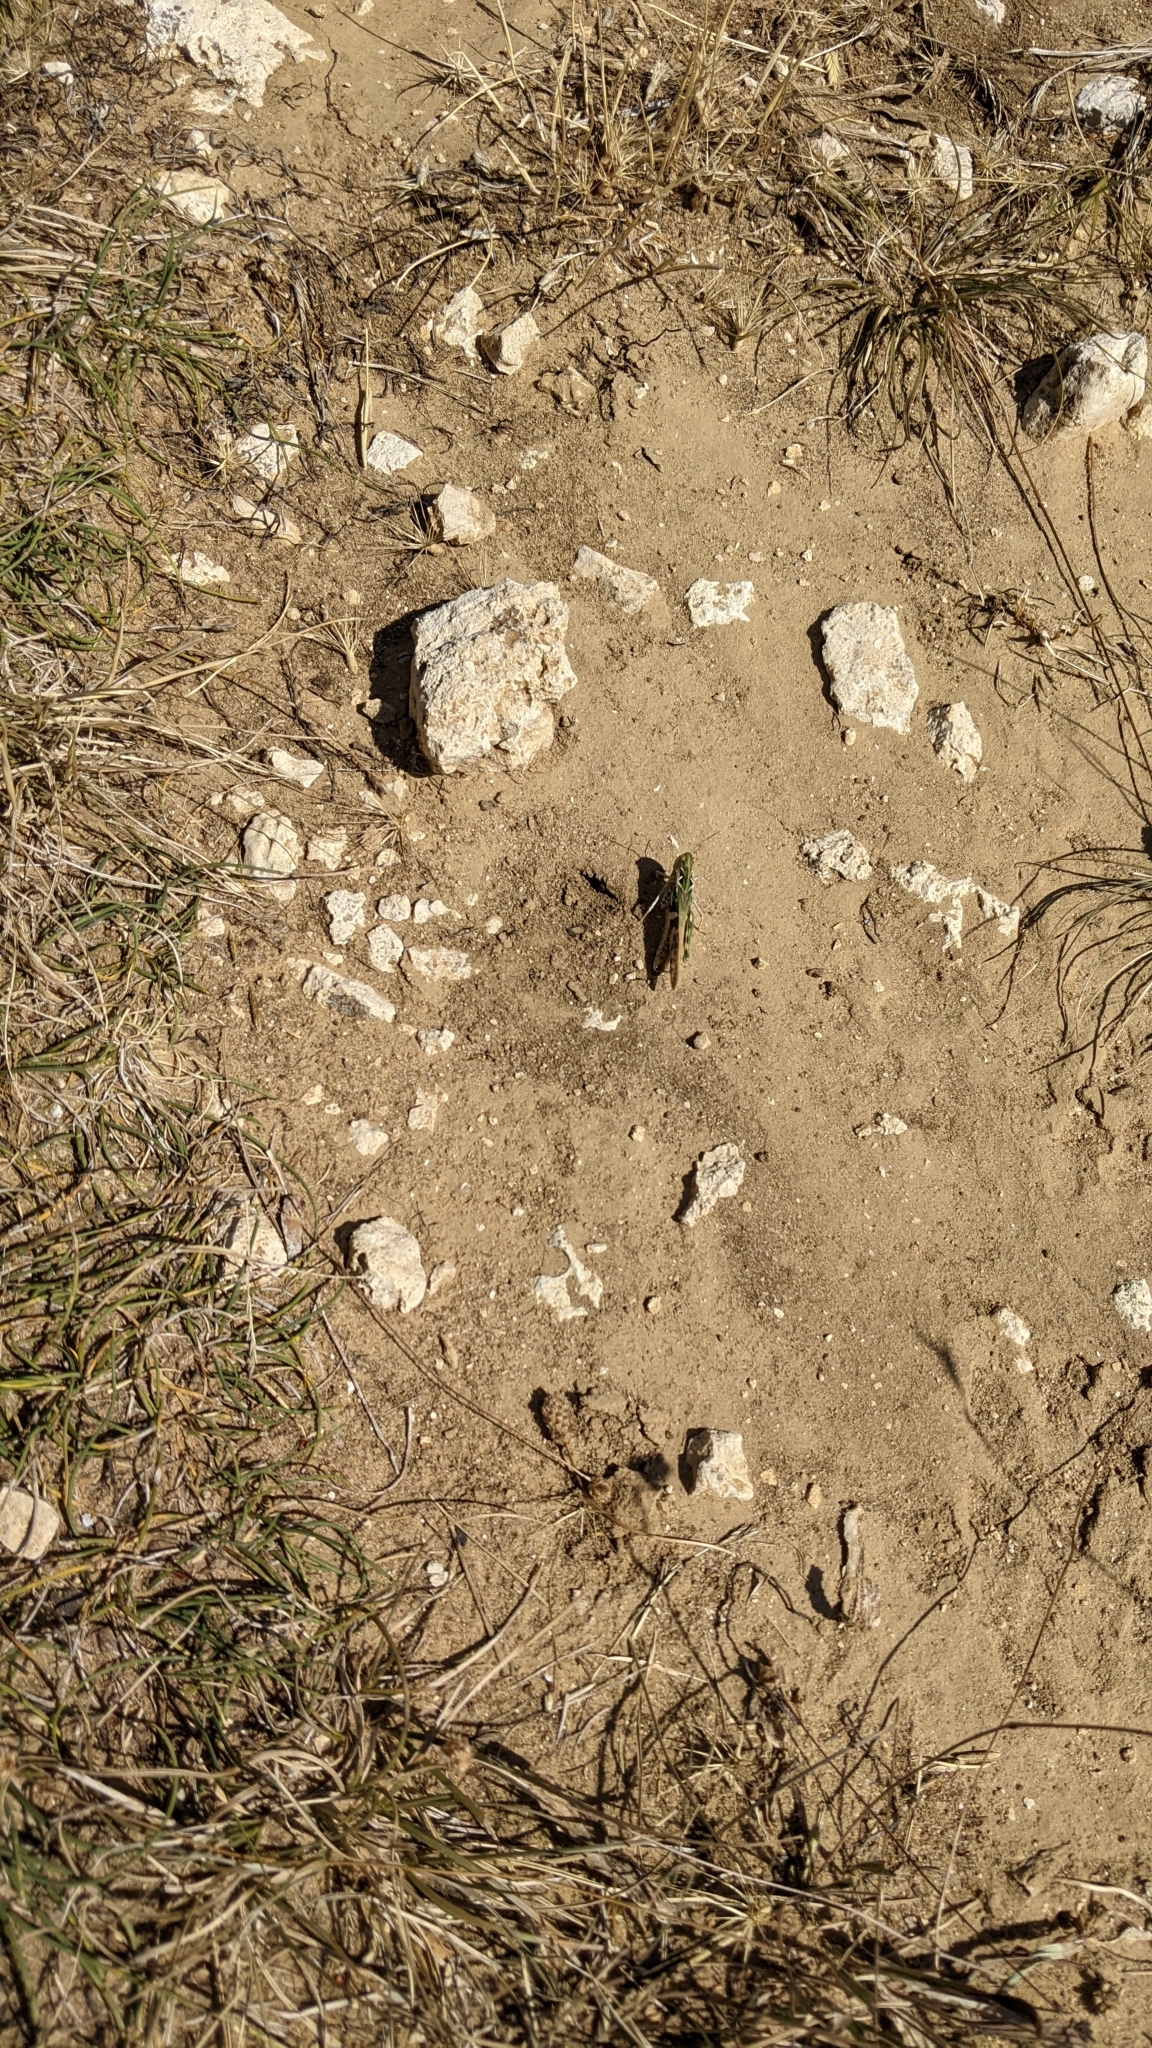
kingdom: Animalia
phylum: Arthropoda
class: Insecta
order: Orthoptera
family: Acrididae
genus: Oedaleus
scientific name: Oedaleus decorus
